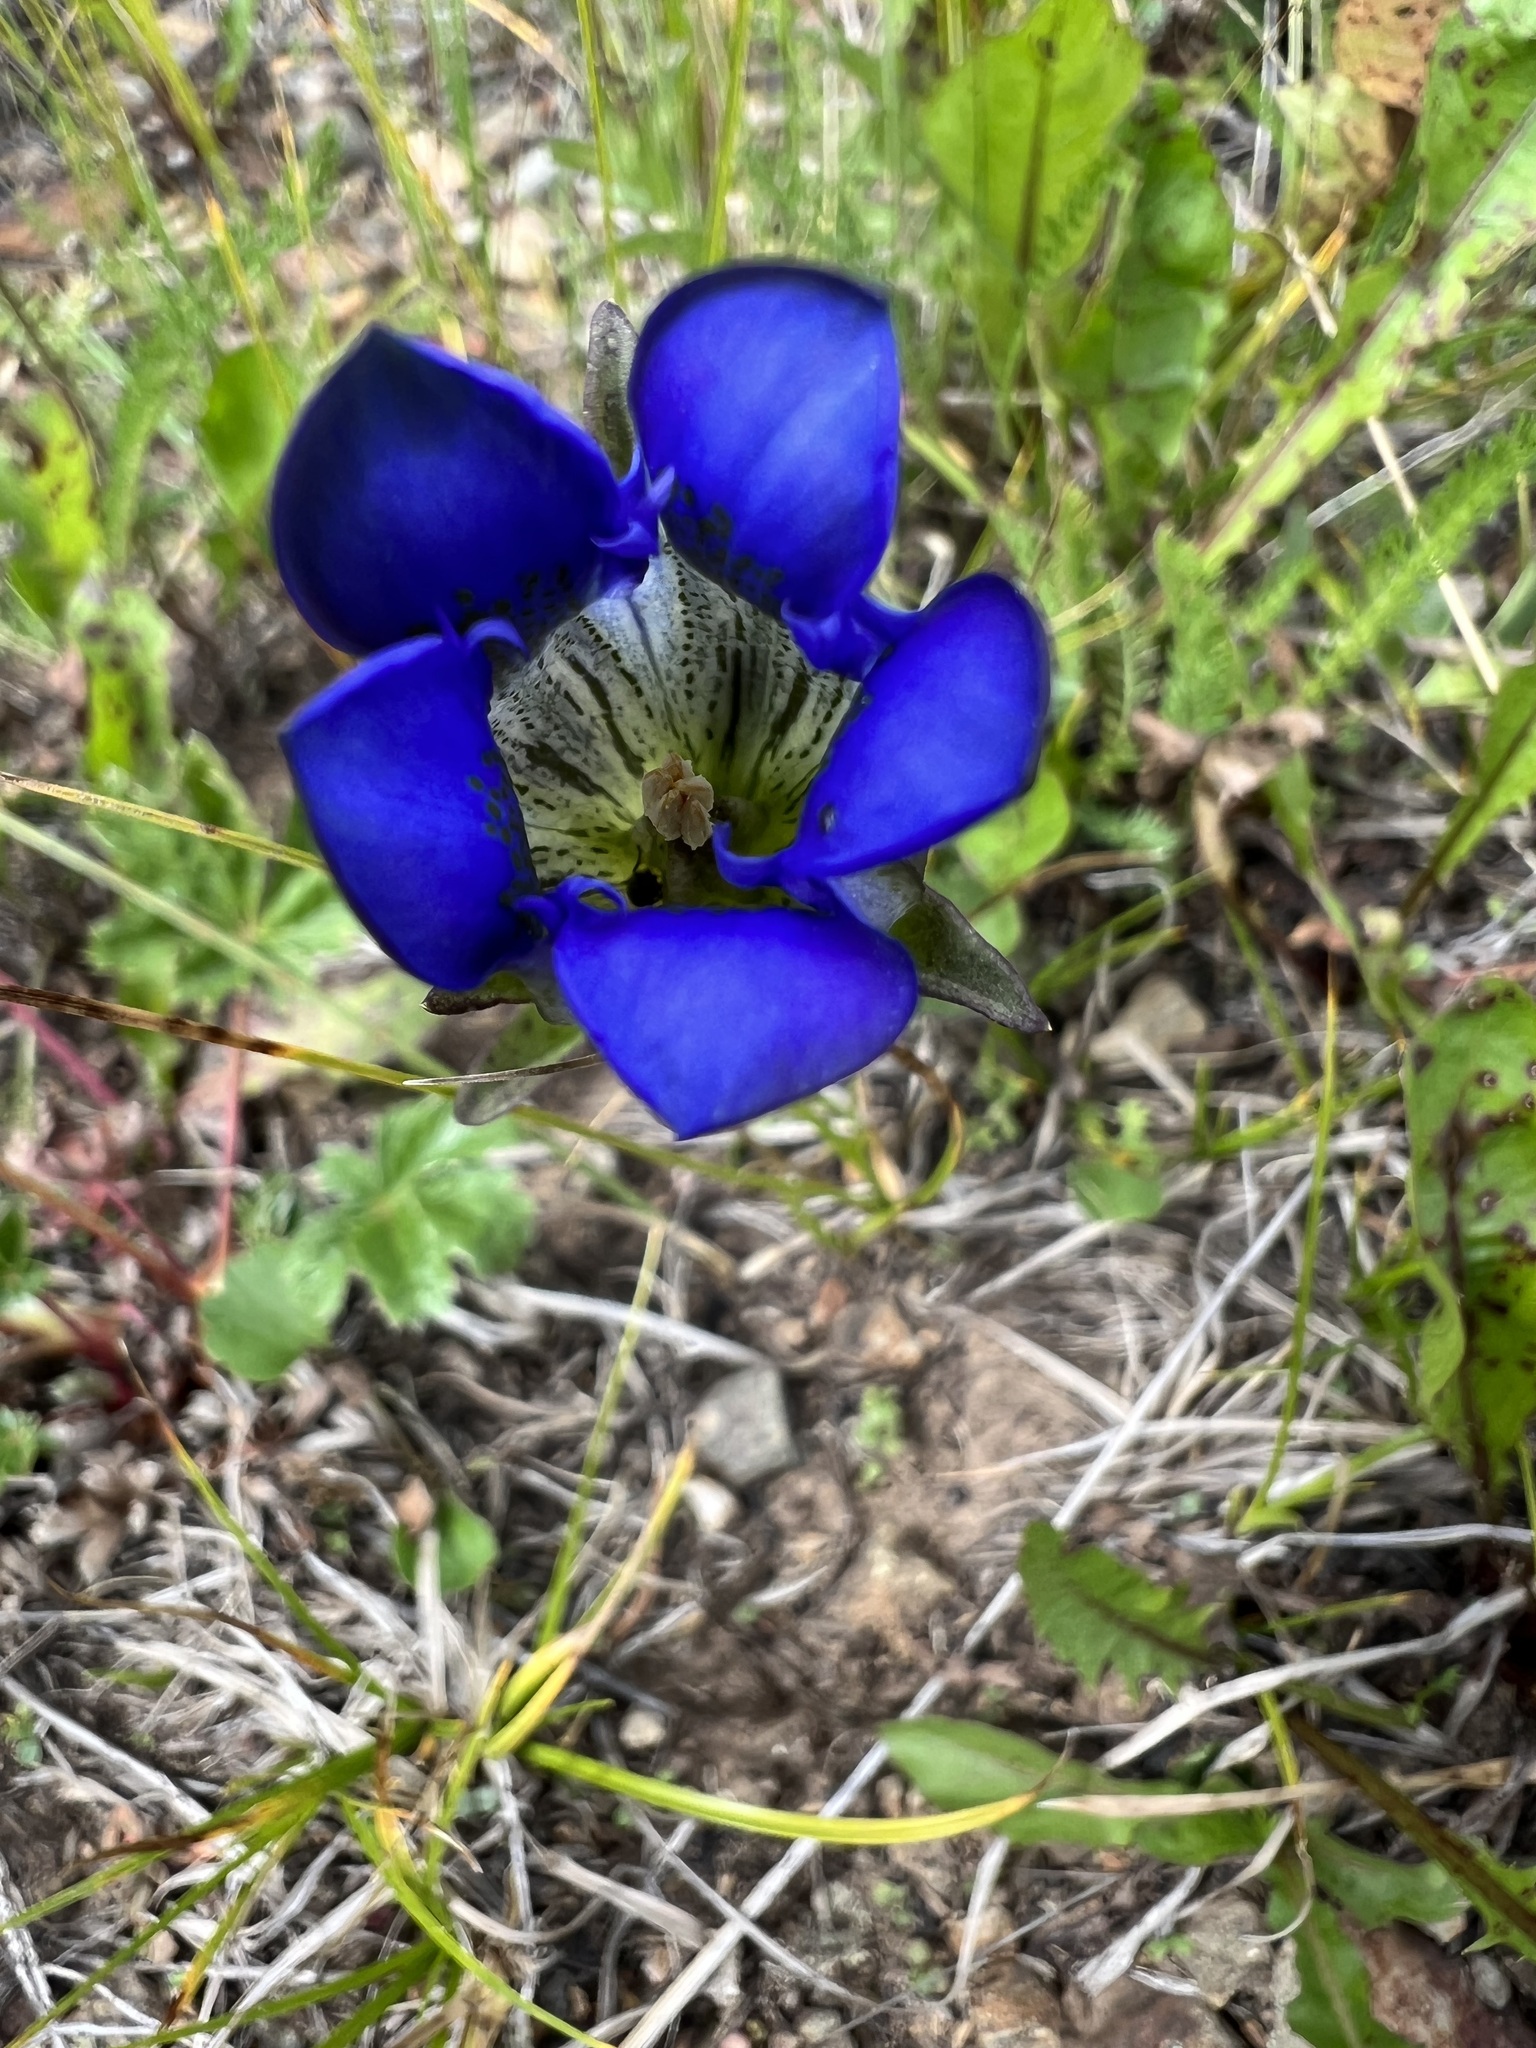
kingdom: Plantae
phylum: Tracheophyta
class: Magnoliopsida
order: Gentianales
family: Gentianaceae
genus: Gentiana
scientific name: Gentiana parryi
